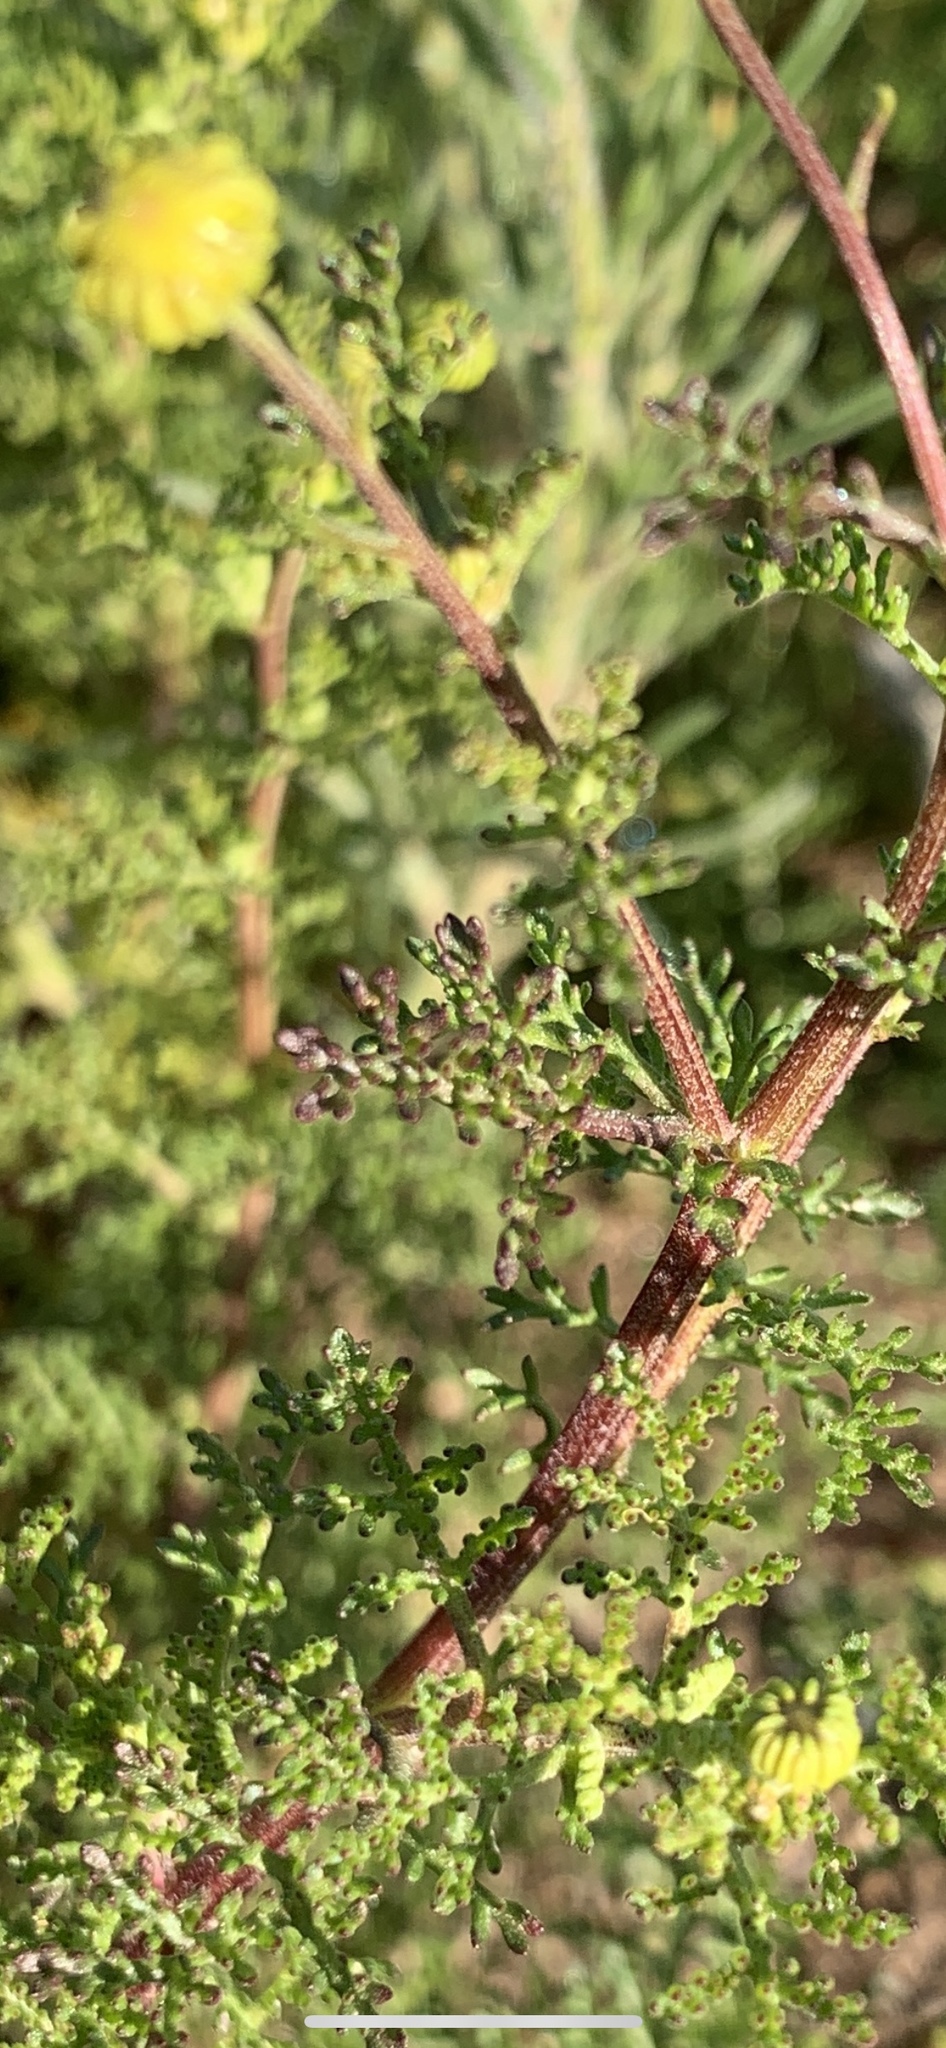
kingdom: Plantae
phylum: Tracheophyta
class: Magnoliopsida
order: Asterales
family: Asteraceae
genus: Oncosiphon
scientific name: Oncosiphon pilulifer
